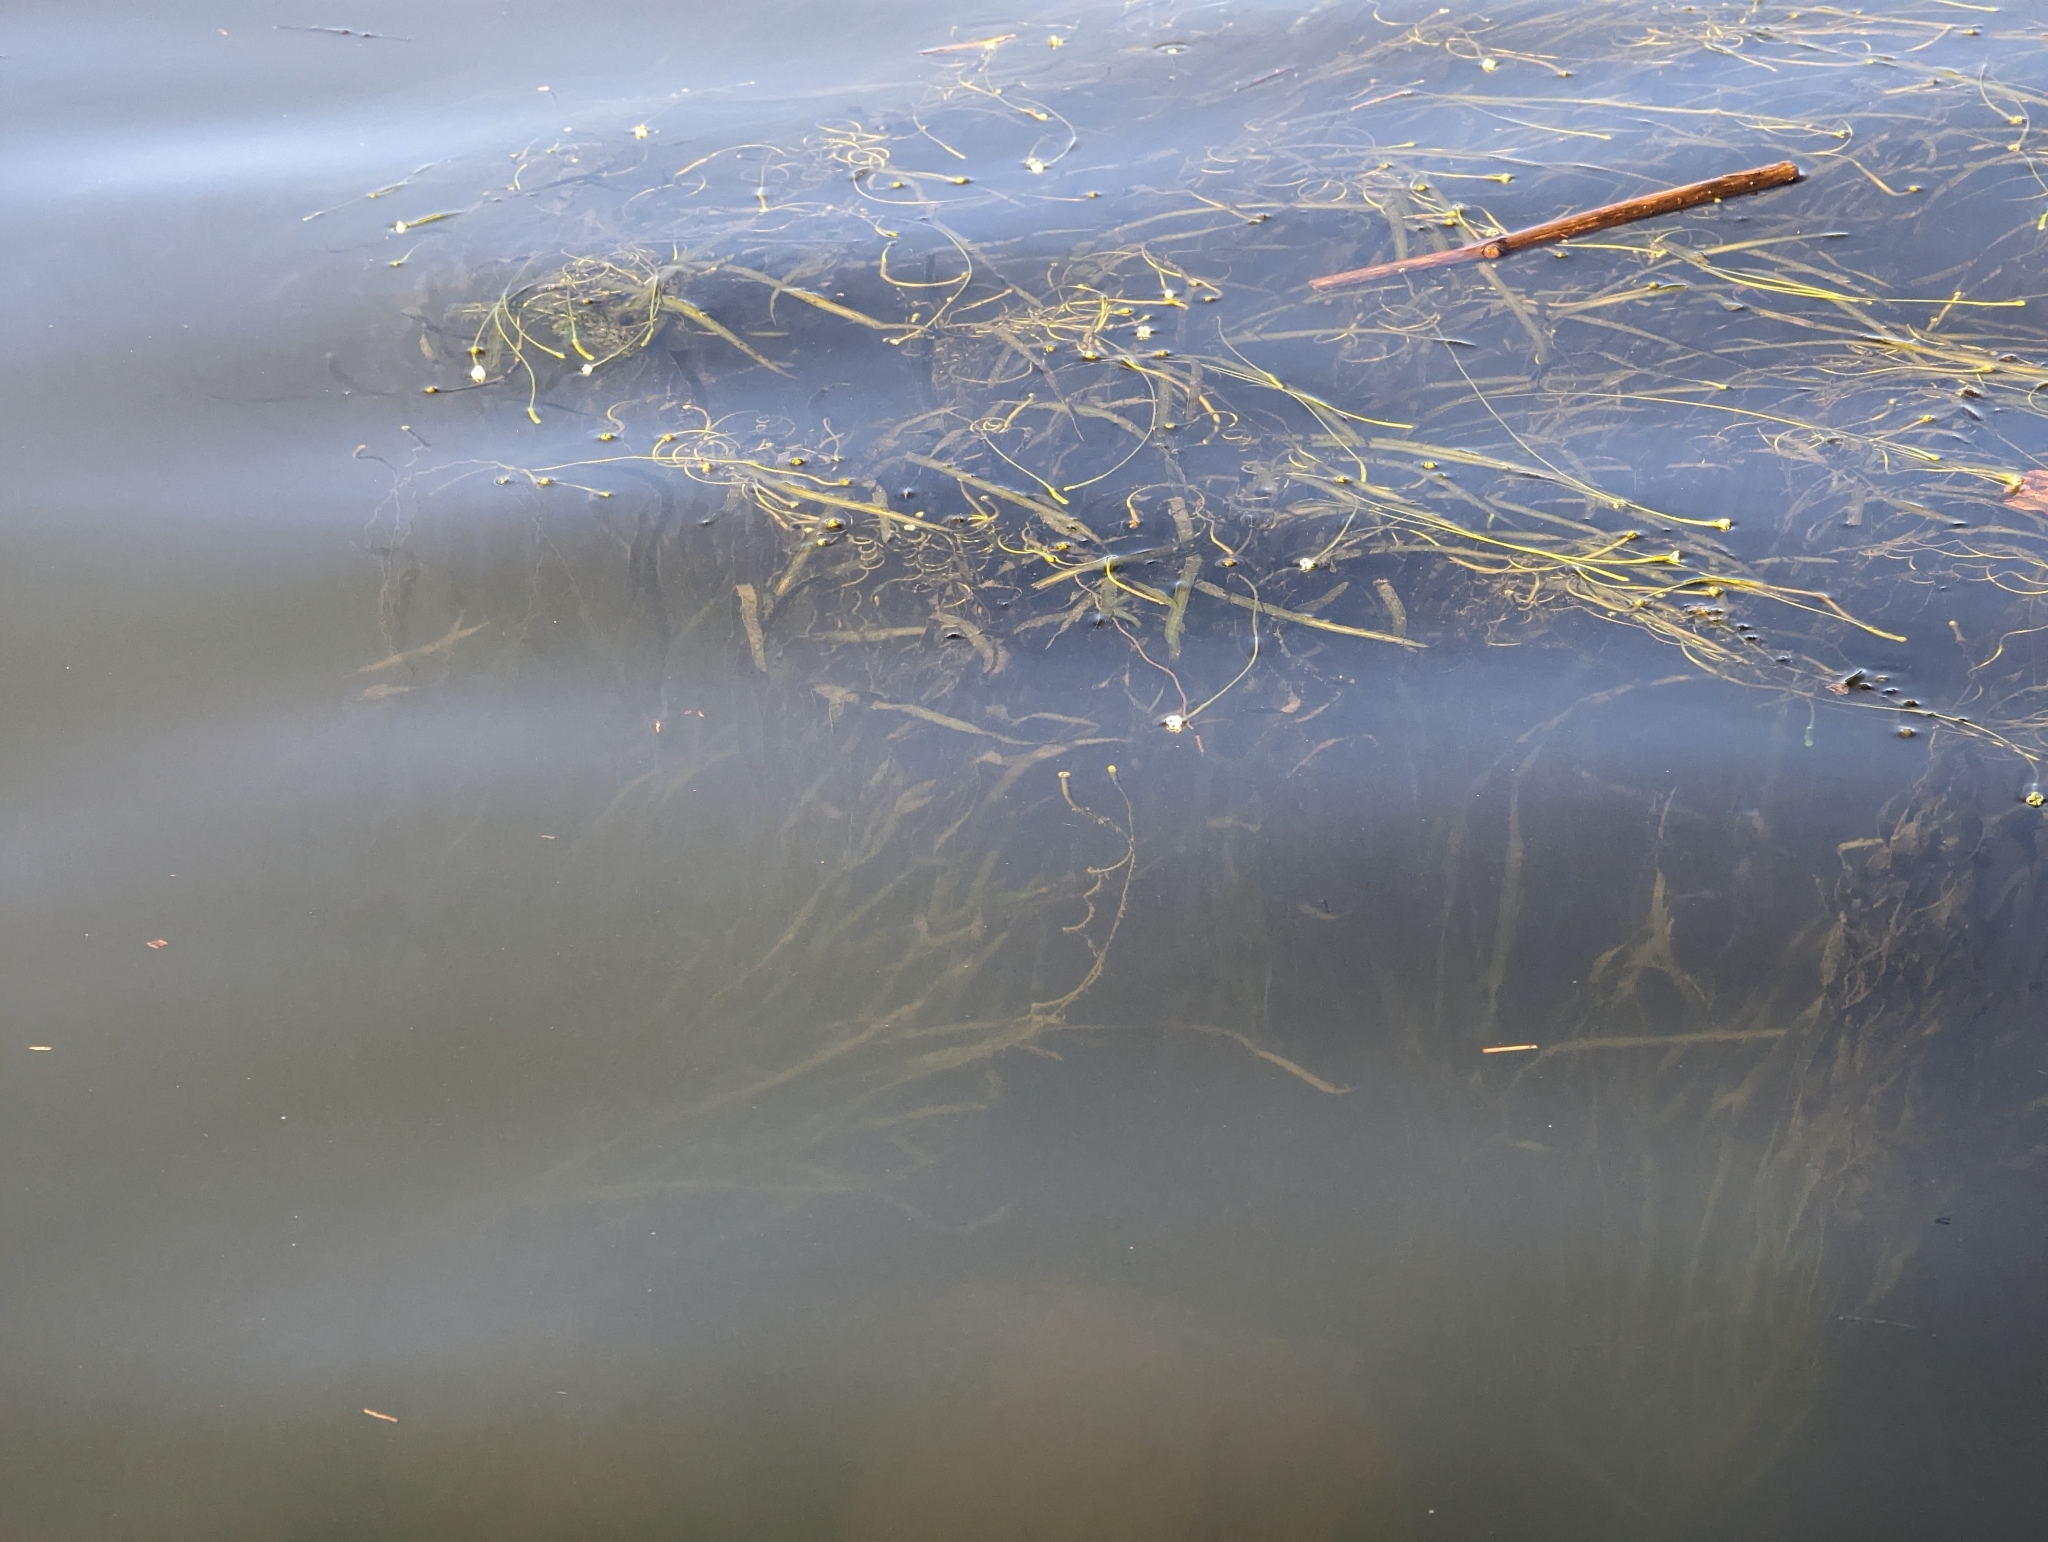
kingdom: Plantae
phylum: Tracheophyta
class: Liliopsida
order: Alismatales
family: Hydrocharitaceae
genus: Vallisneria
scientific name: Vallisneria americana
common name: American eelgrass
